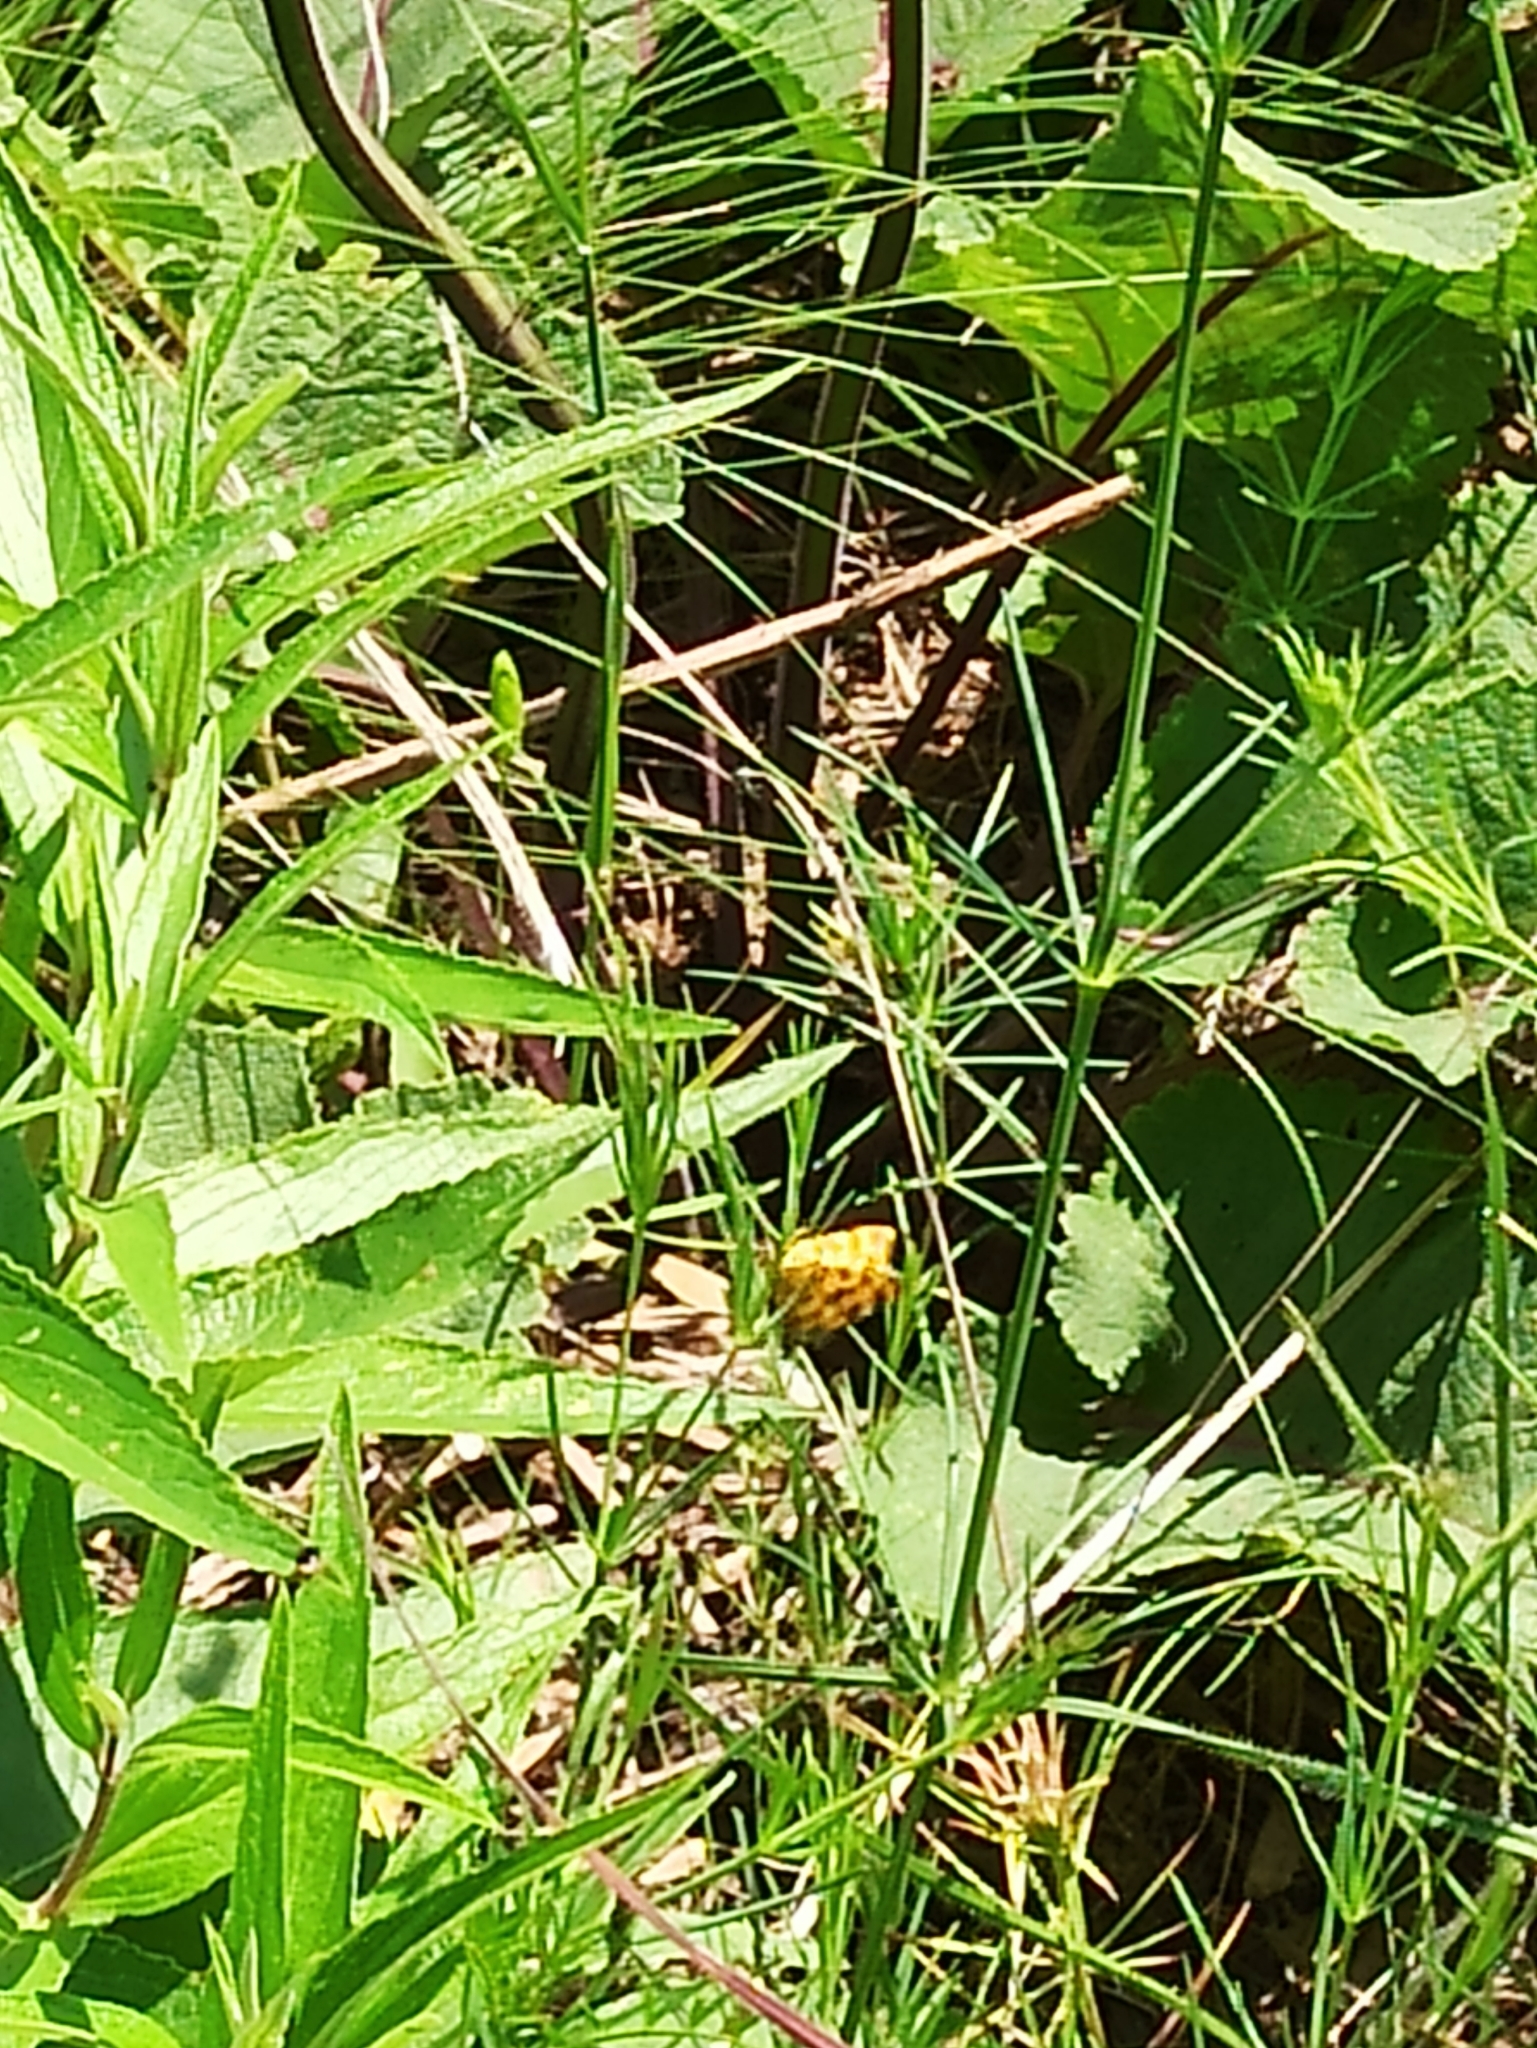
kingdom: Animalia
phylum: Arthropoda
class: Insecta
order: Lepidoptera
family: Geometridae
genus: Pseudopanthera
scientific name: Pseudopanthera macularia
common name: Speckled yellow
